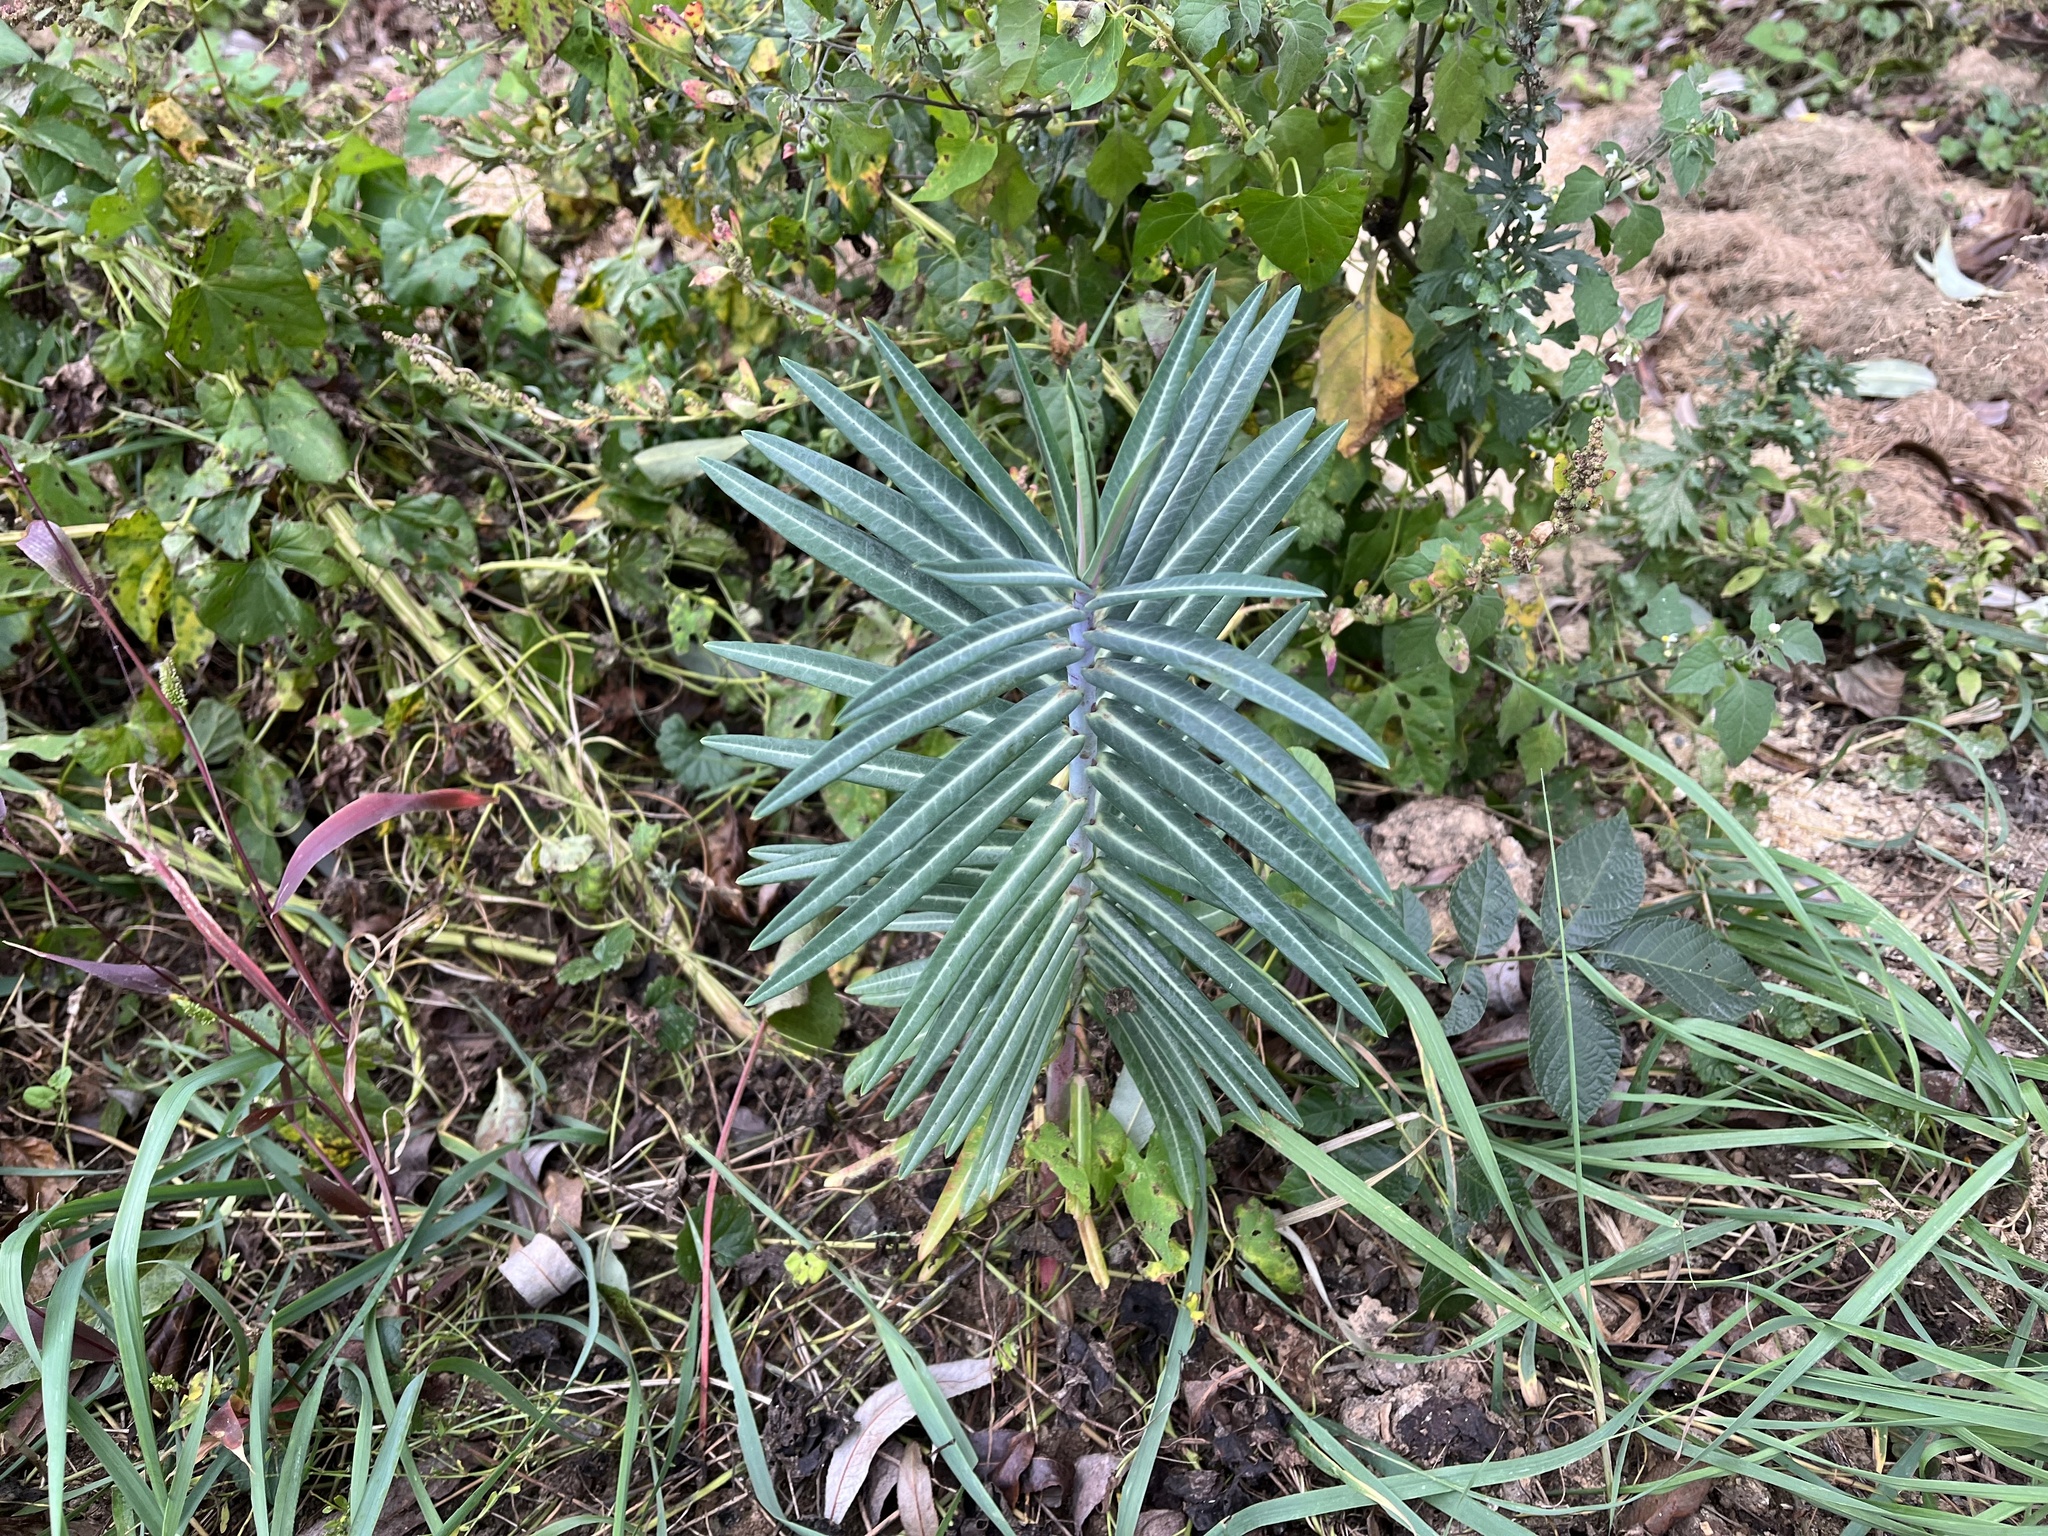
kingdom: Plantae
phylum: Tracheophyta
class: Magnoliopsida
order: Malpighiales
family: Euphorbiaceae
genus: Euphorbia
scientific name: Euphorbia lathyris
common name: Caper spurge
